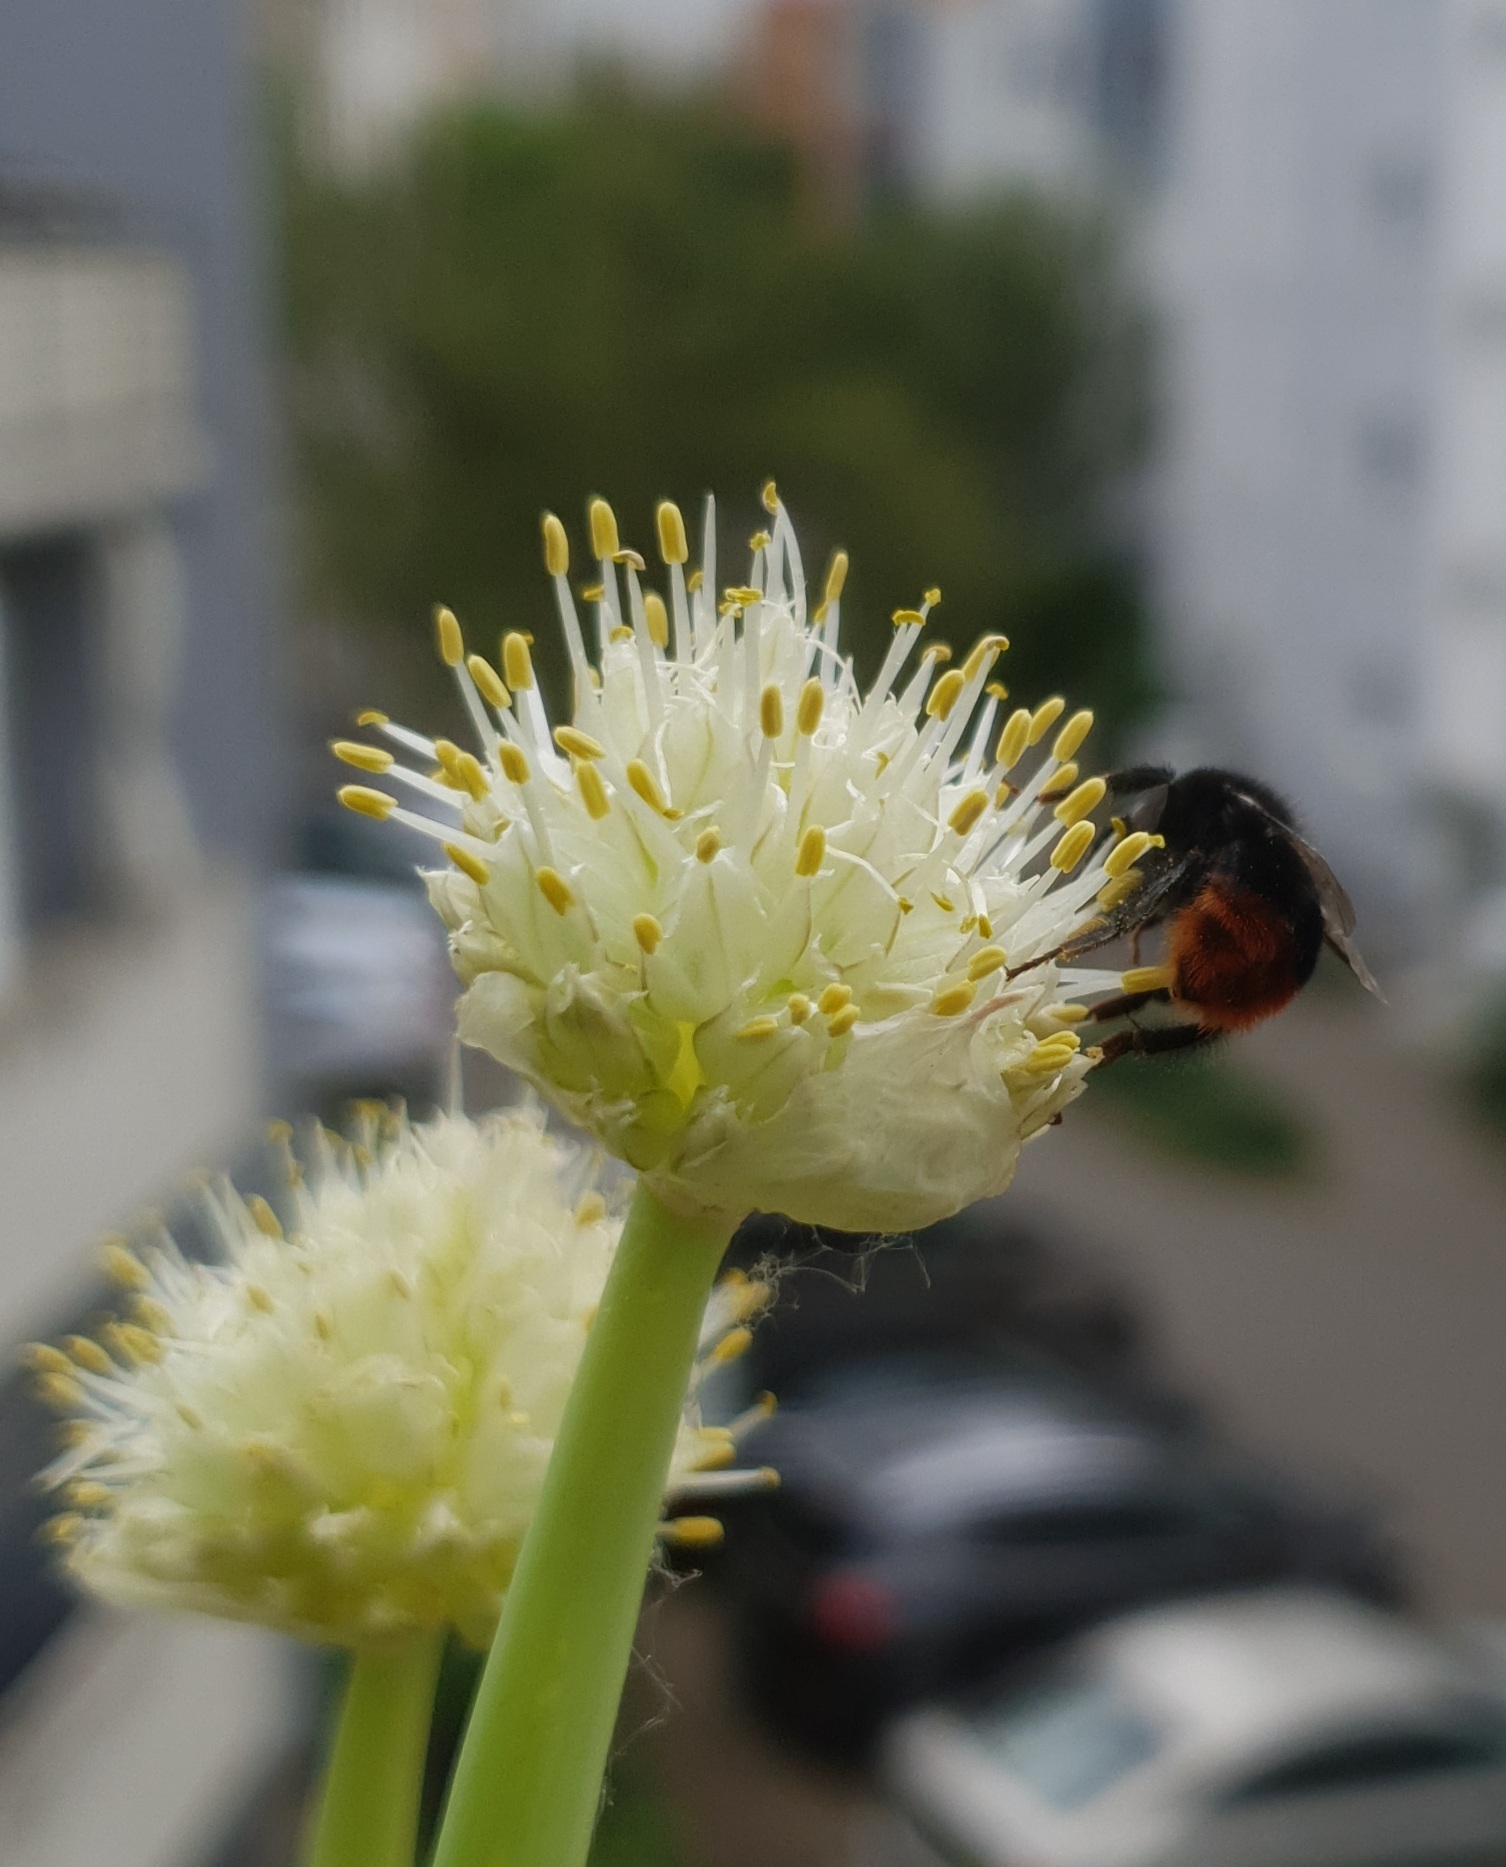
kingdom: Animalia
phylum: Arthropoda
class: Insecta
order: Hymenoptera
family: Apidae
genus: Bombus
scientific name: Bombus lapidarius
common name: Large red-tailed humble-bee
